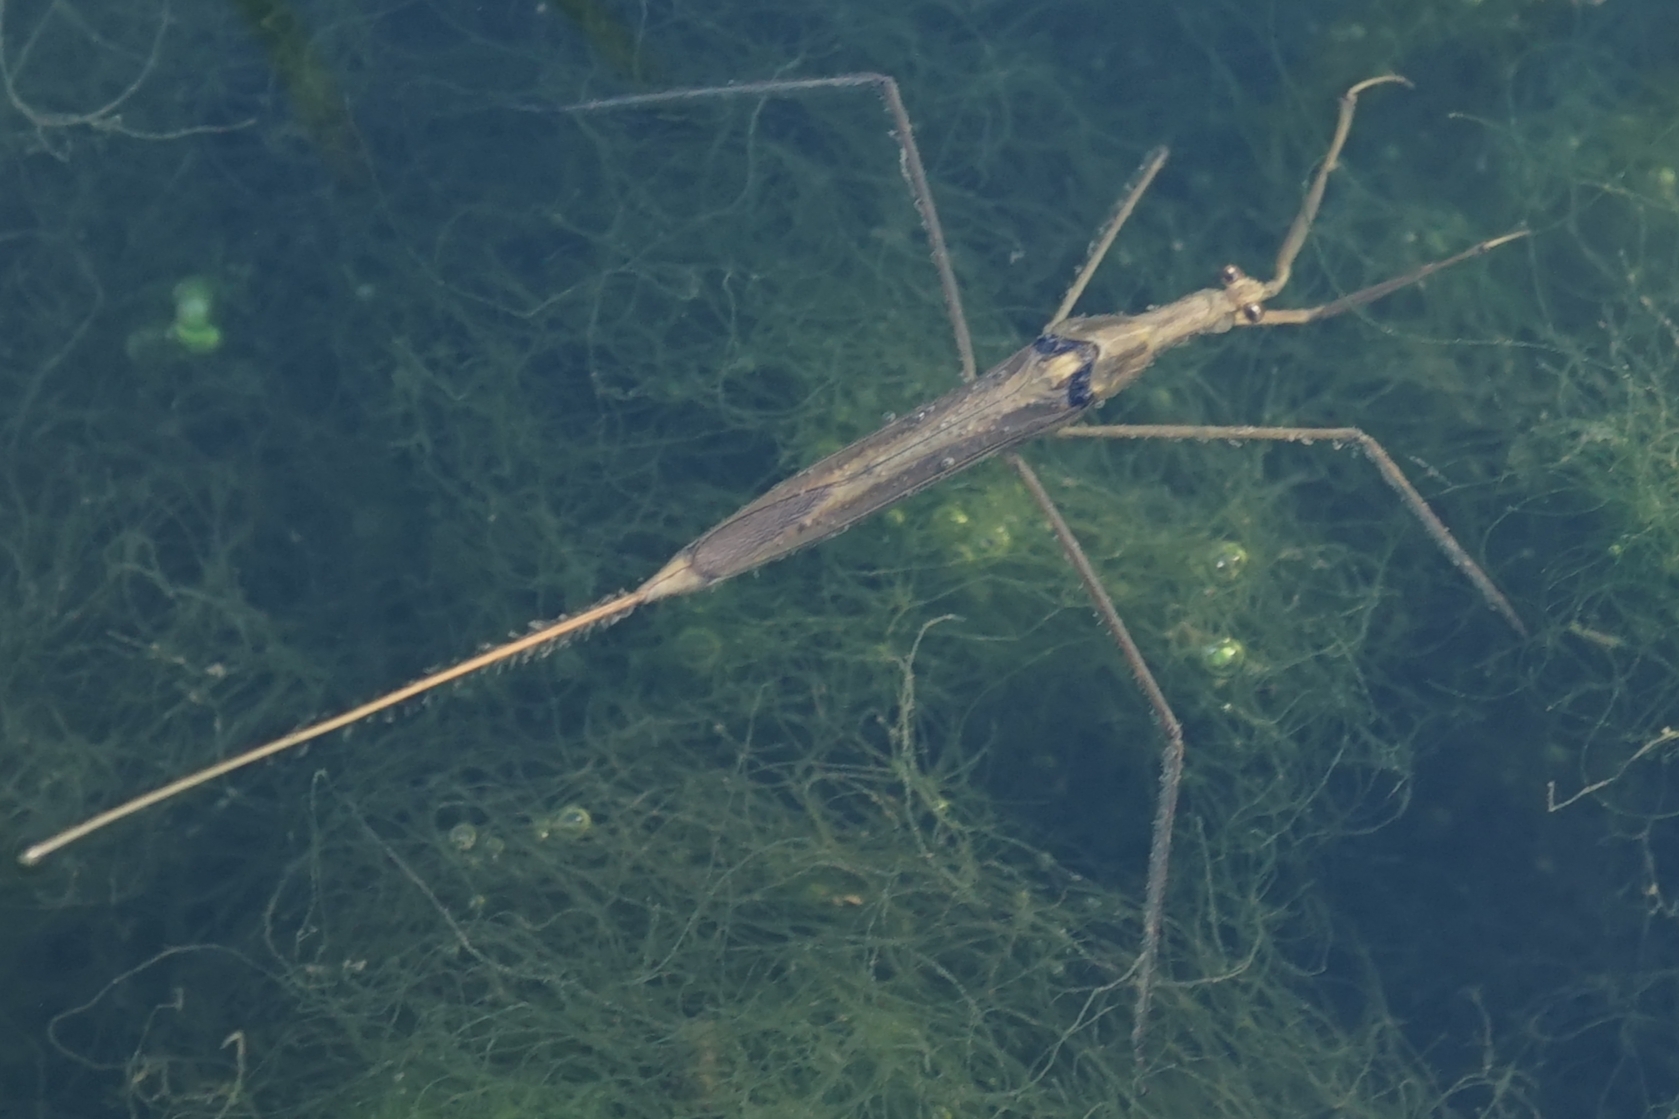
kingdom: Animalia
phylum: Arthropoda
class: Insecta
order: Hemiptera
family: Nepidae
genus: Ranatra
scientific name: Ranatra chinensis
